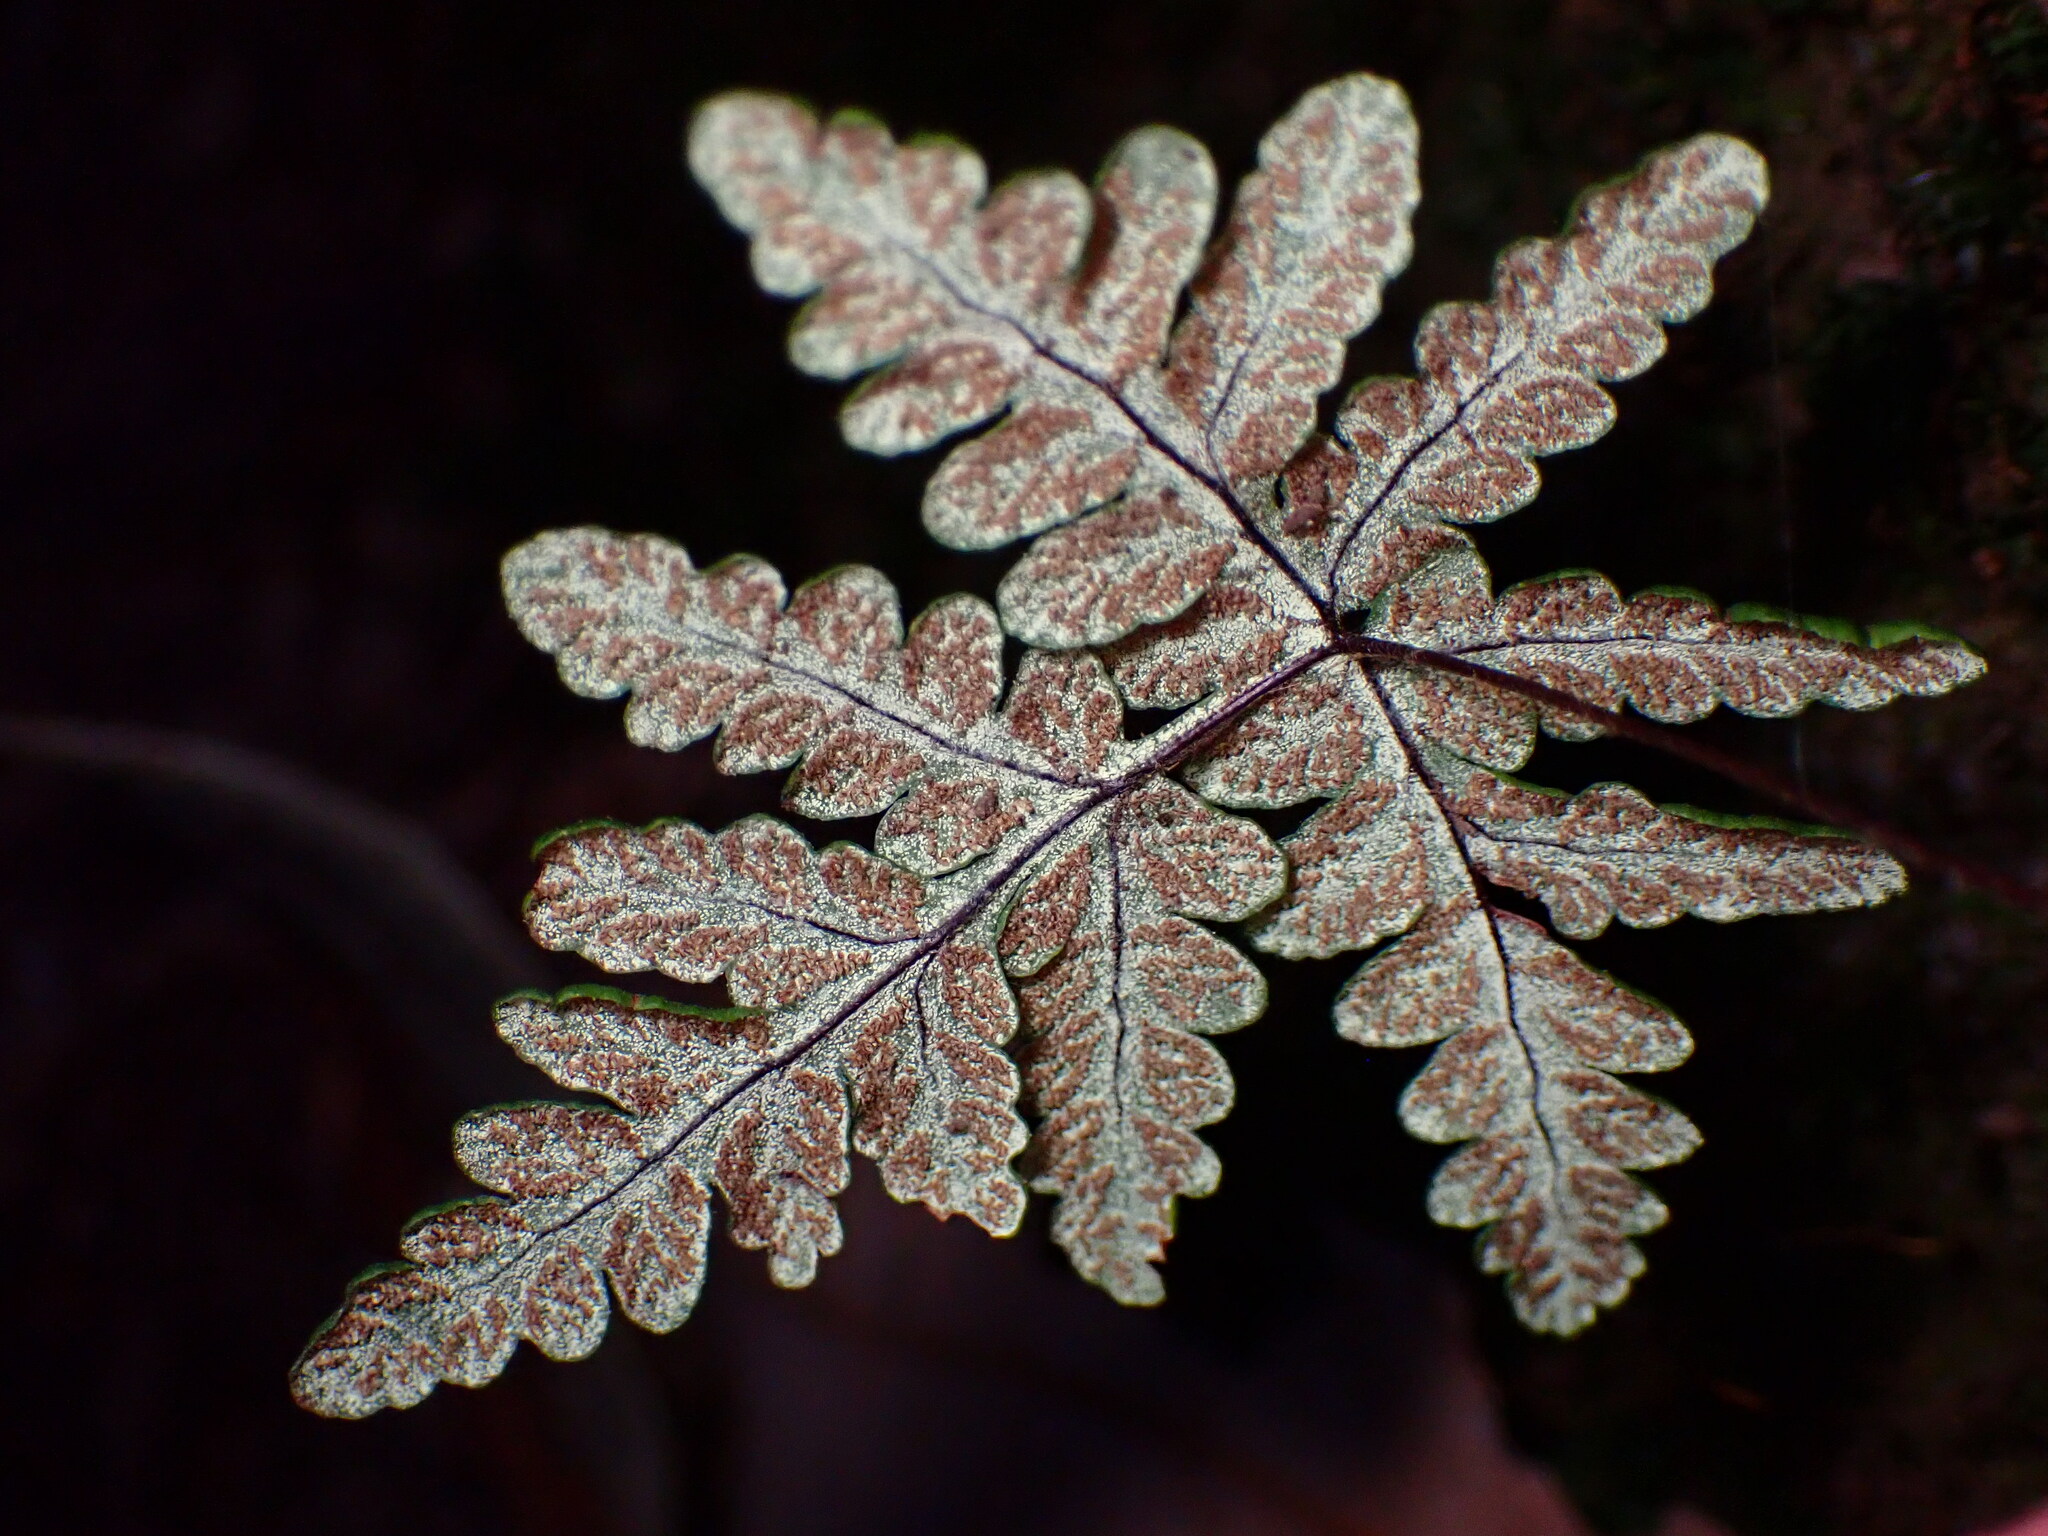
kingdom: Plantae
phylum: Tracheophyta
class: Polypodiopsida
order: Polypodiales
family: Pteridaceae
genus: Pentagramma
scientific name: Pentagramma triangularis
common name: Gold fern
